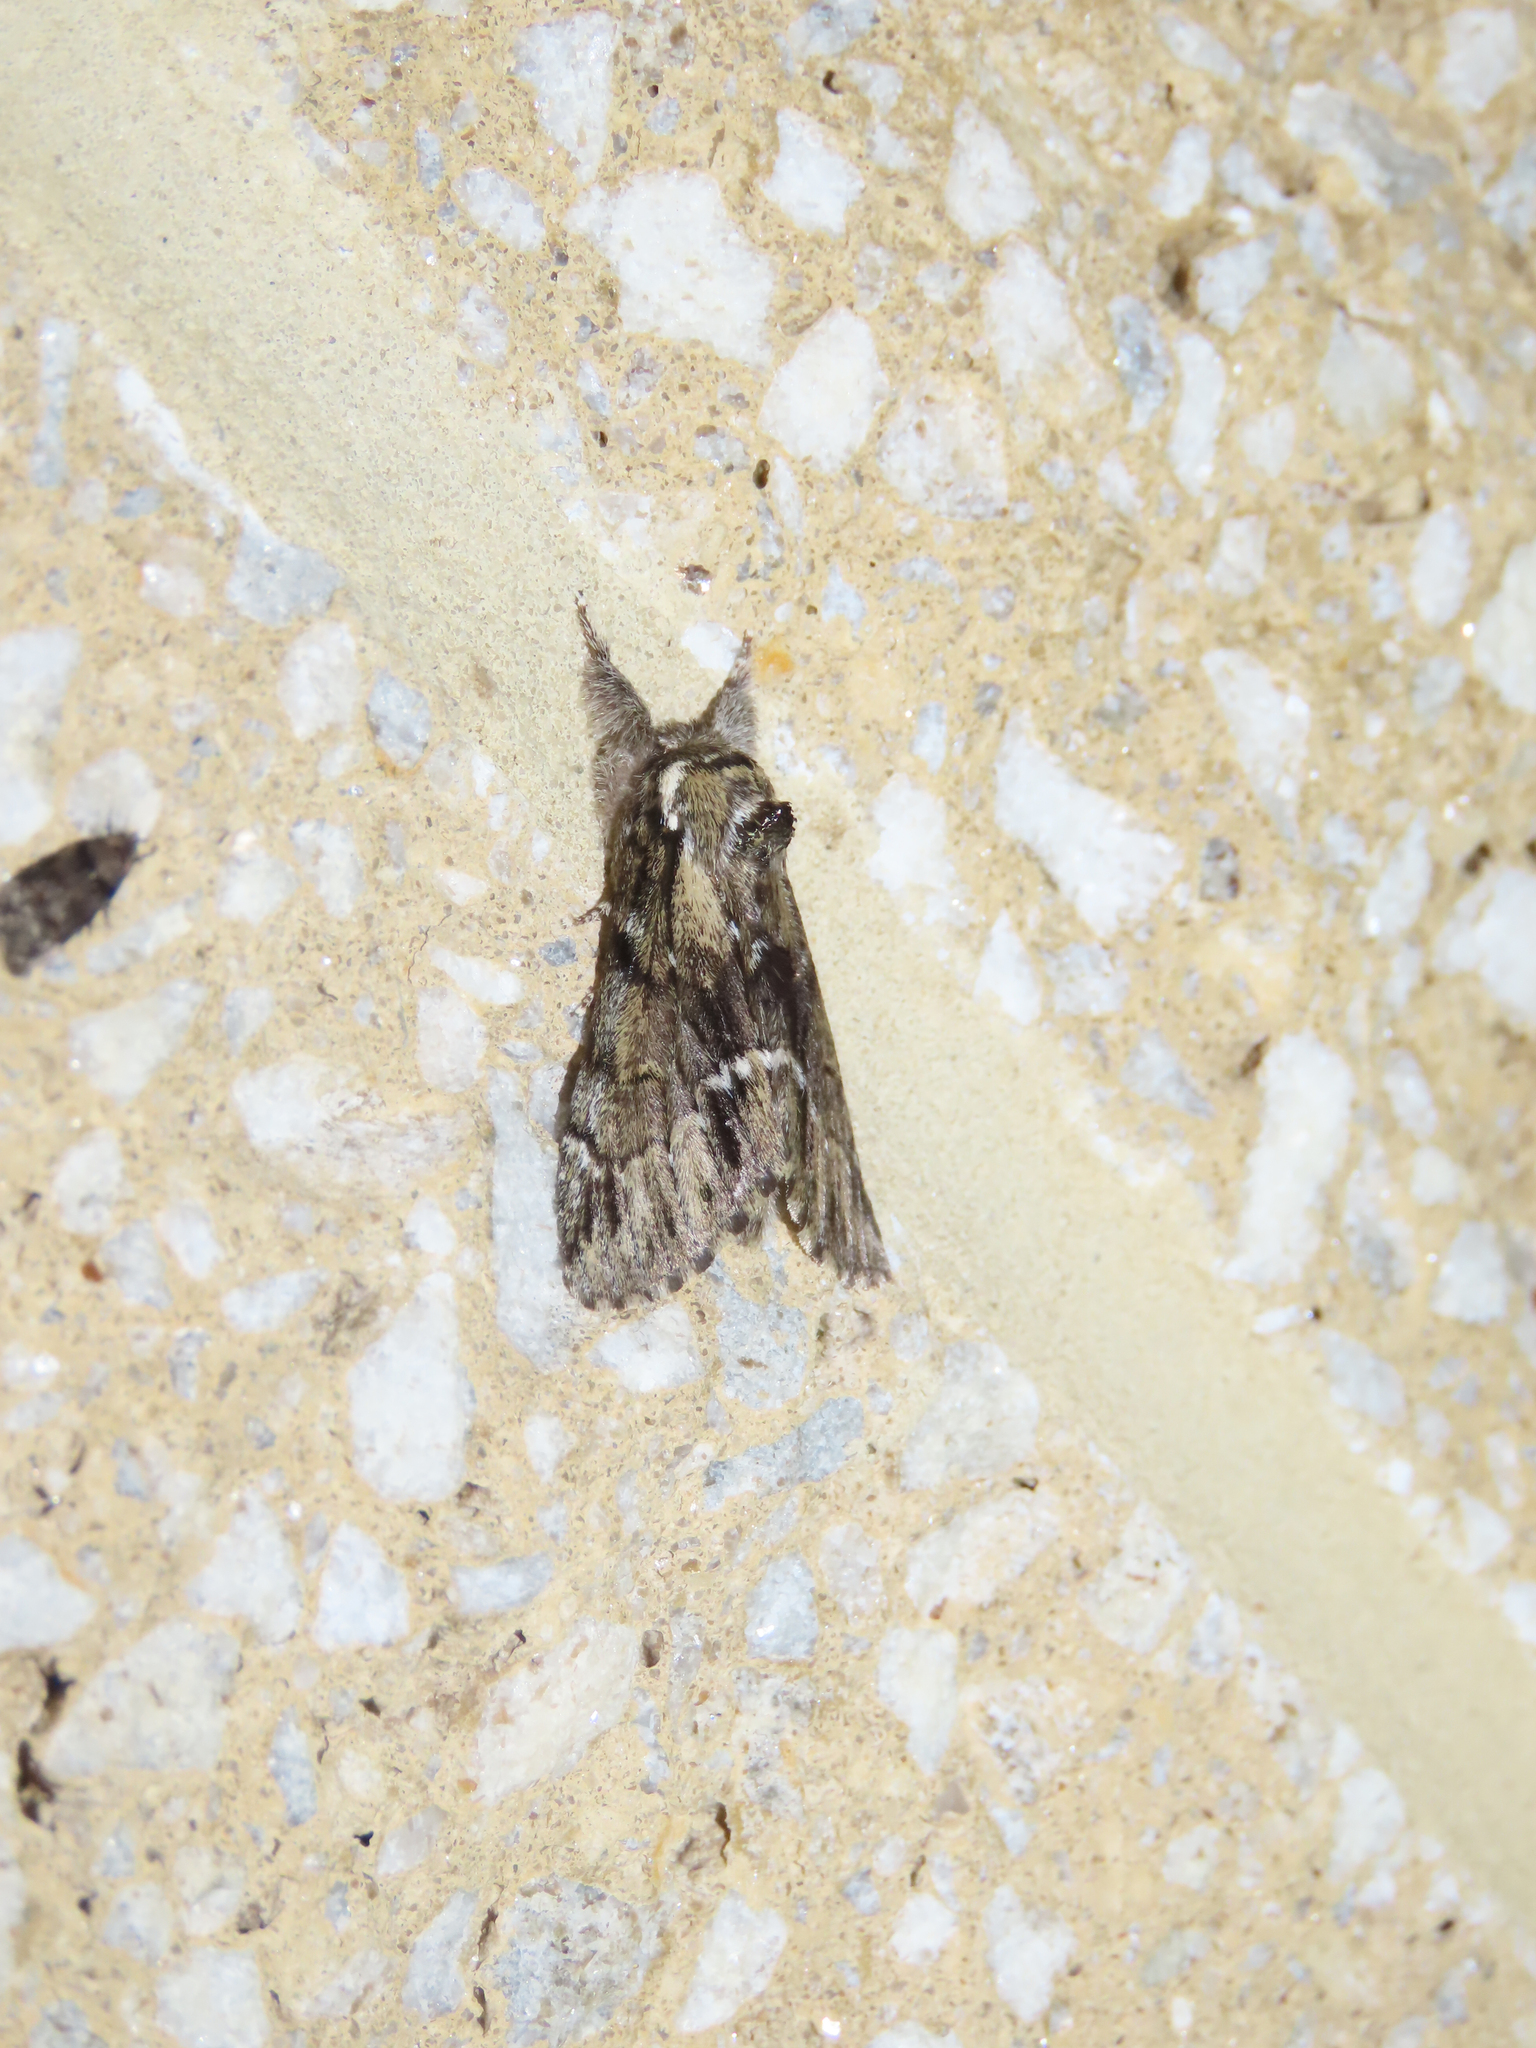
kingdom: Animalia
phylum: Arthropoda
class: Insecta
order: Lepidoptera
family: Notodontidae
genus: Paraeschra
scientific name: Paraeschra georgica
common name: Georgian prominent
